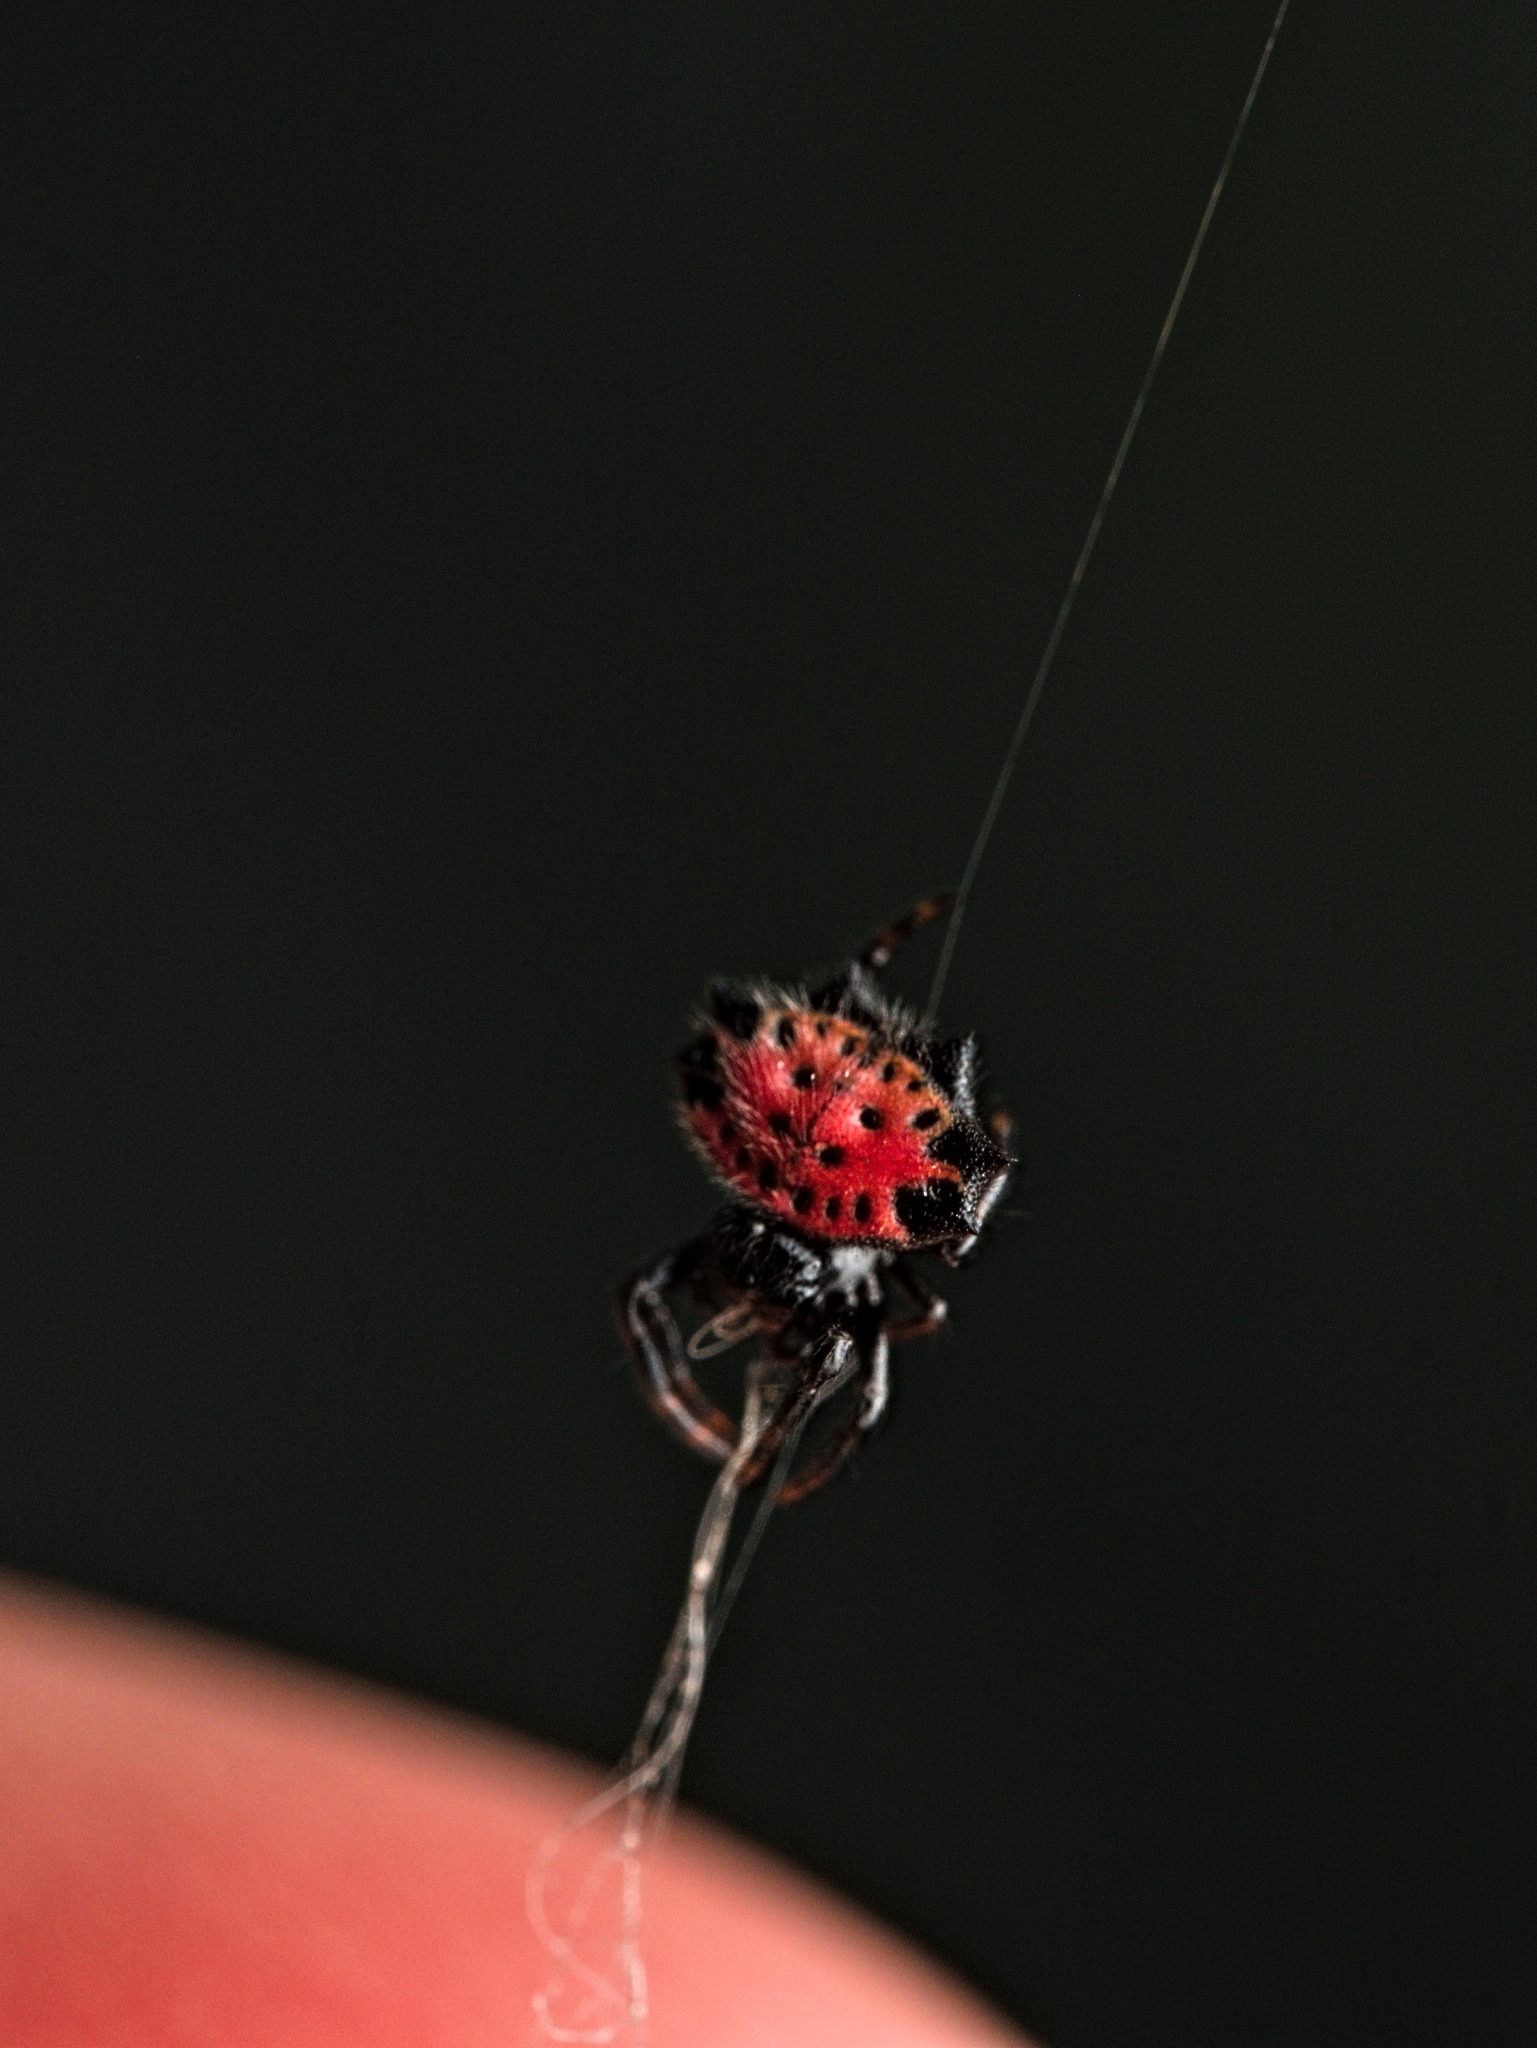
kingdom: Animalia
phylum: Arthropoda
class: Arachnida
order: Araneae
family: Araneidae
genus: Gasteracantha
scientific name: Gasteracantha cancriformis
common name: Orb weavers
